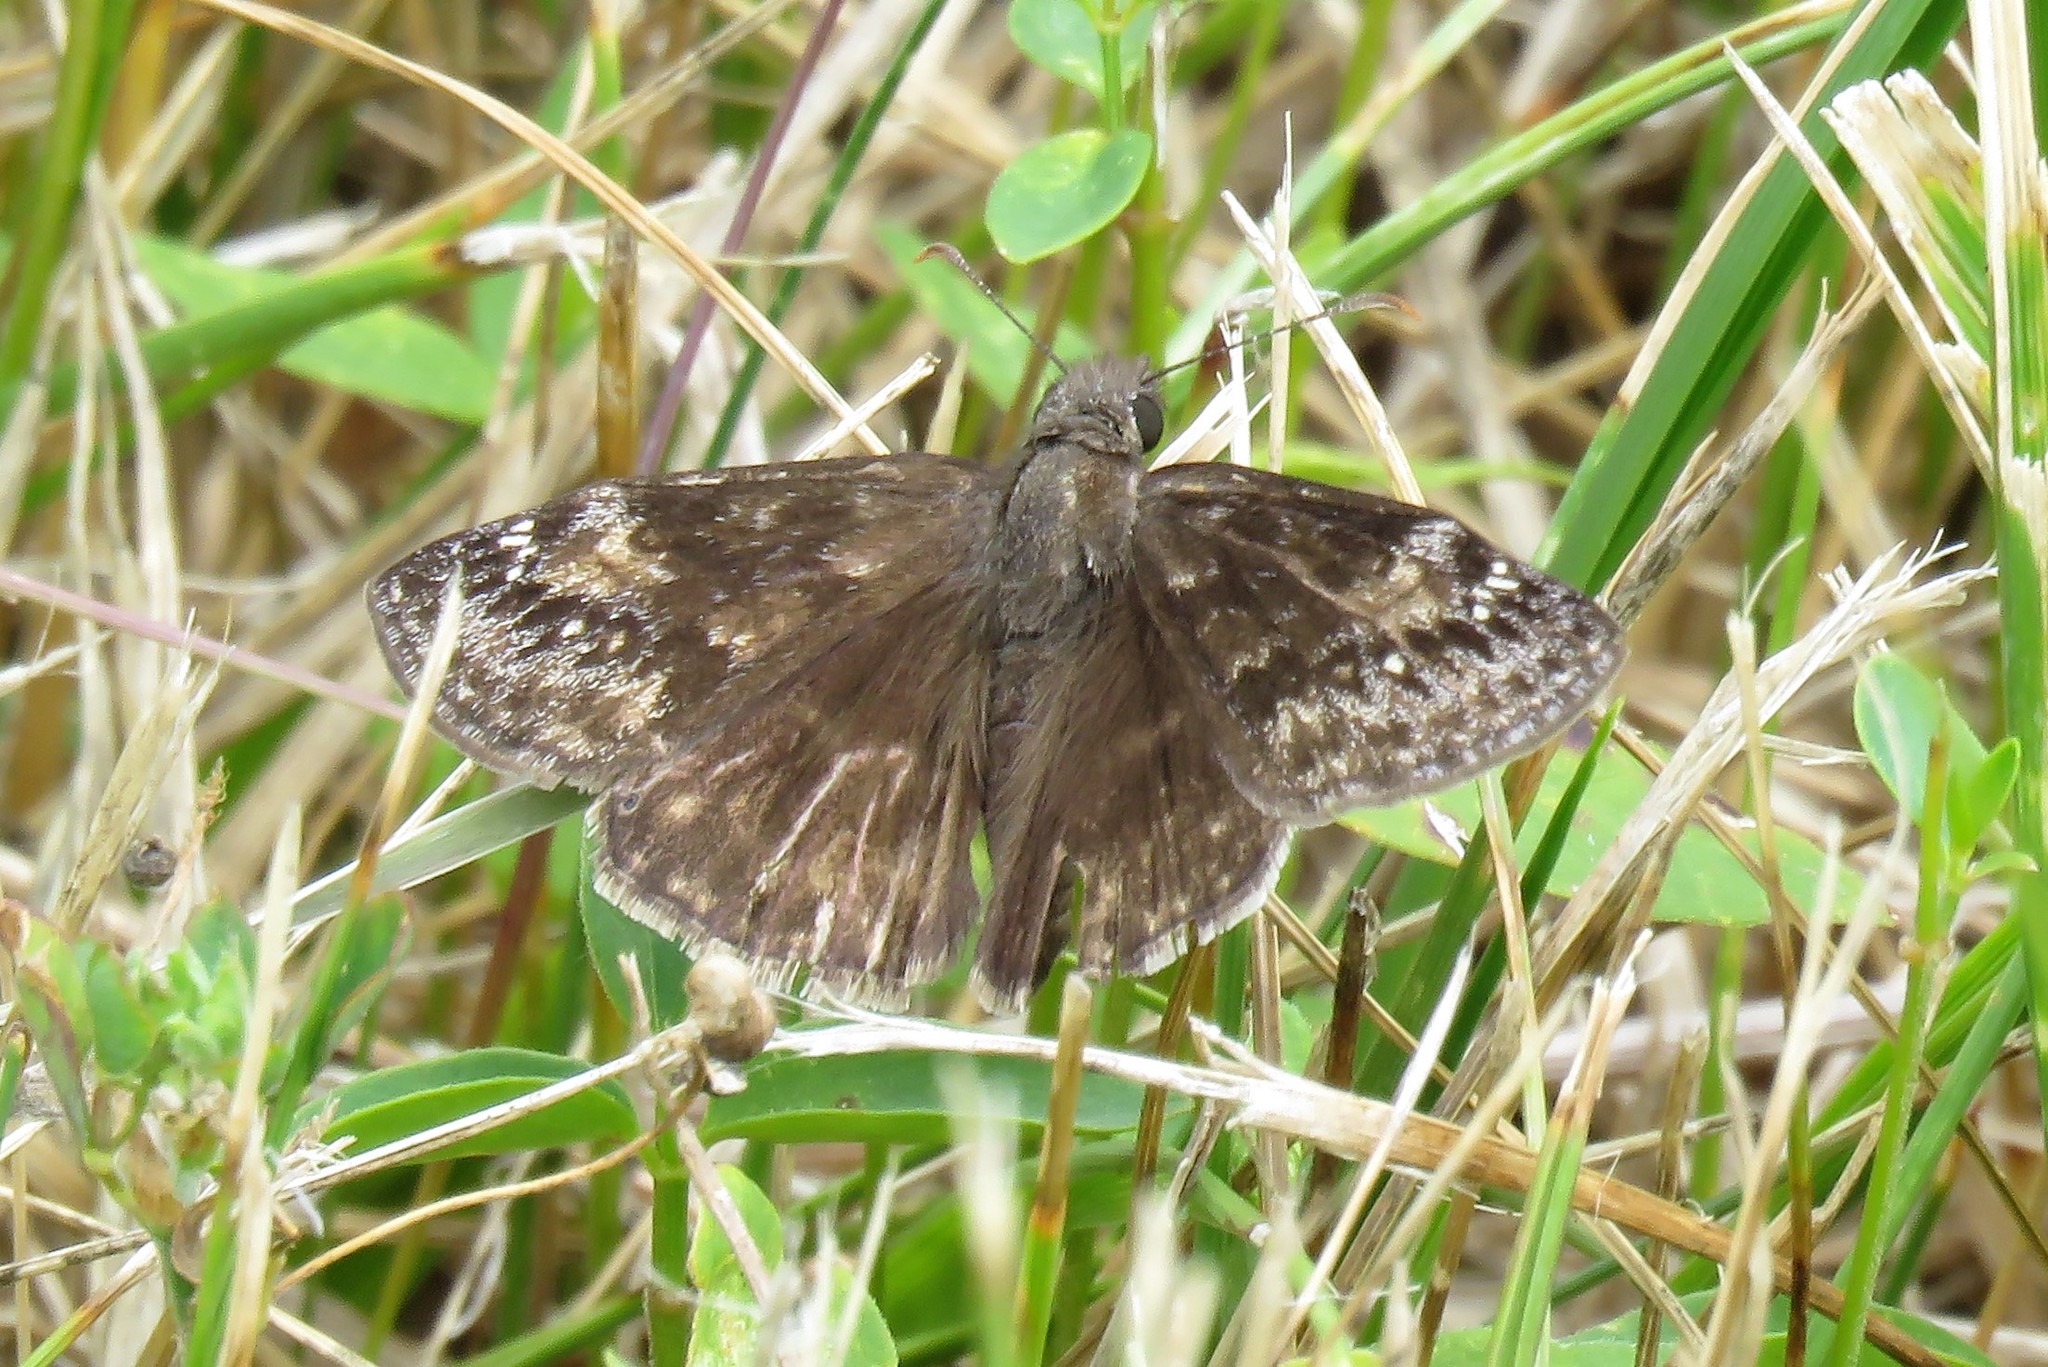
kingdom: Animalia
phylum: Arthropoda
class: Insecta
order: Lepidoptera
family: Hesperiidae
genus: Erynnis
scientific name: Erynnis baptisiae
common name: Wild indigo duskywing
